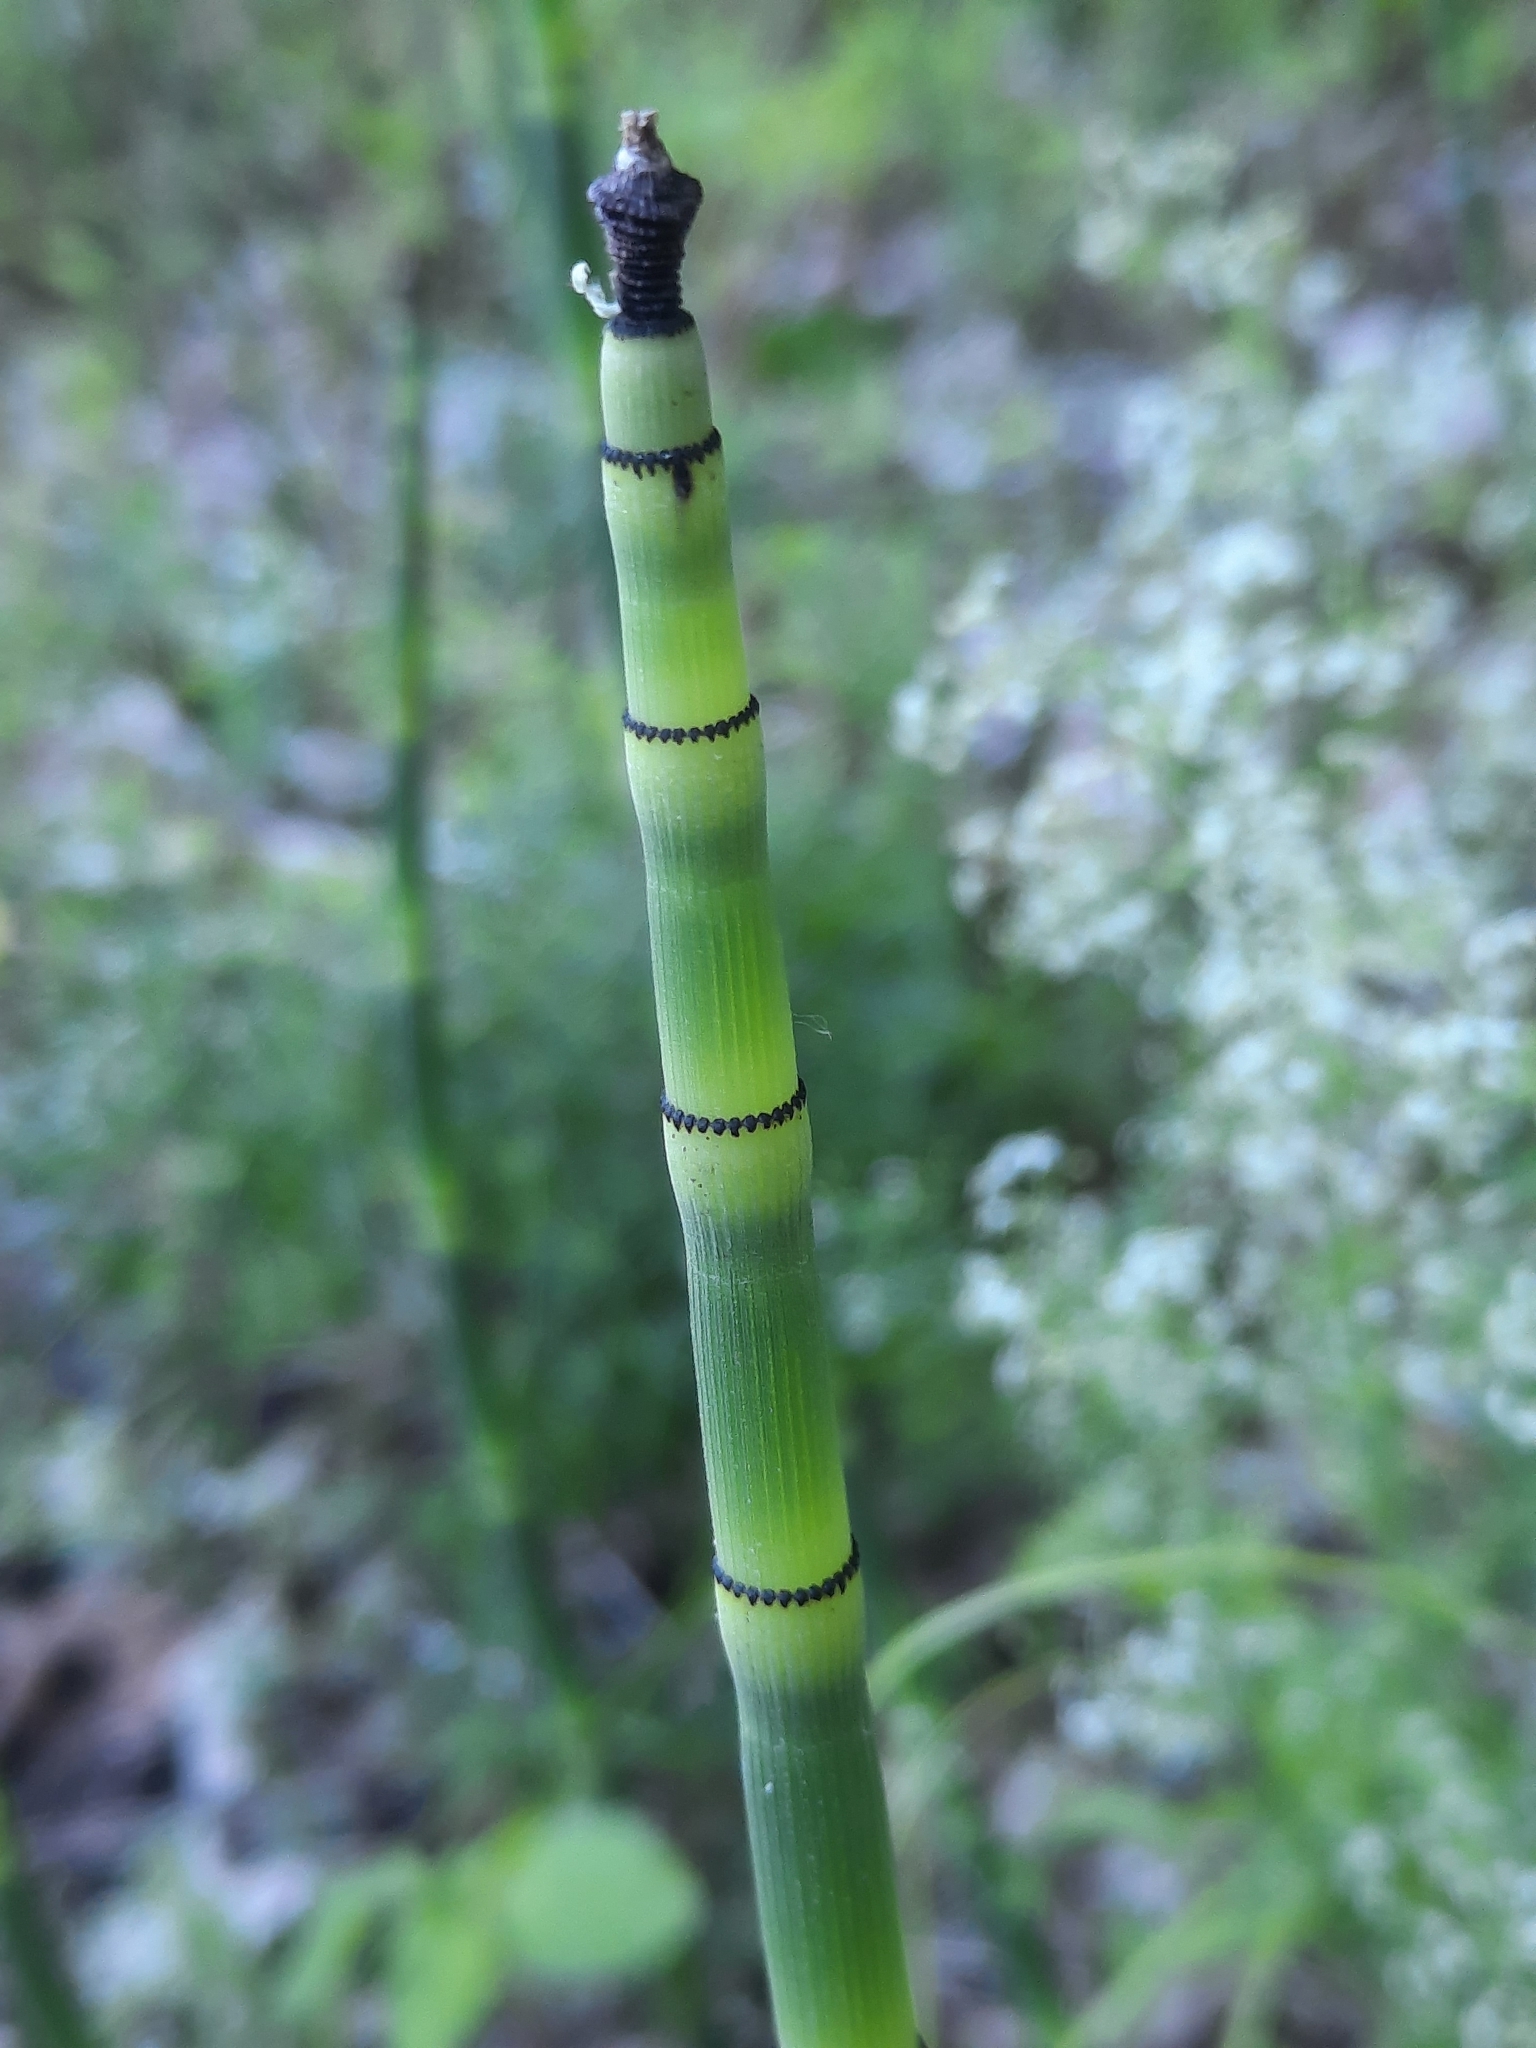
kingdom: Plantae
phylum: Tracheophyta
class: Polypodiopsida
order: Equisetales
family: Equisetaceae
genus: Equisetum
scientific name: Equisetum hyemale
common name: Rough horsetail
